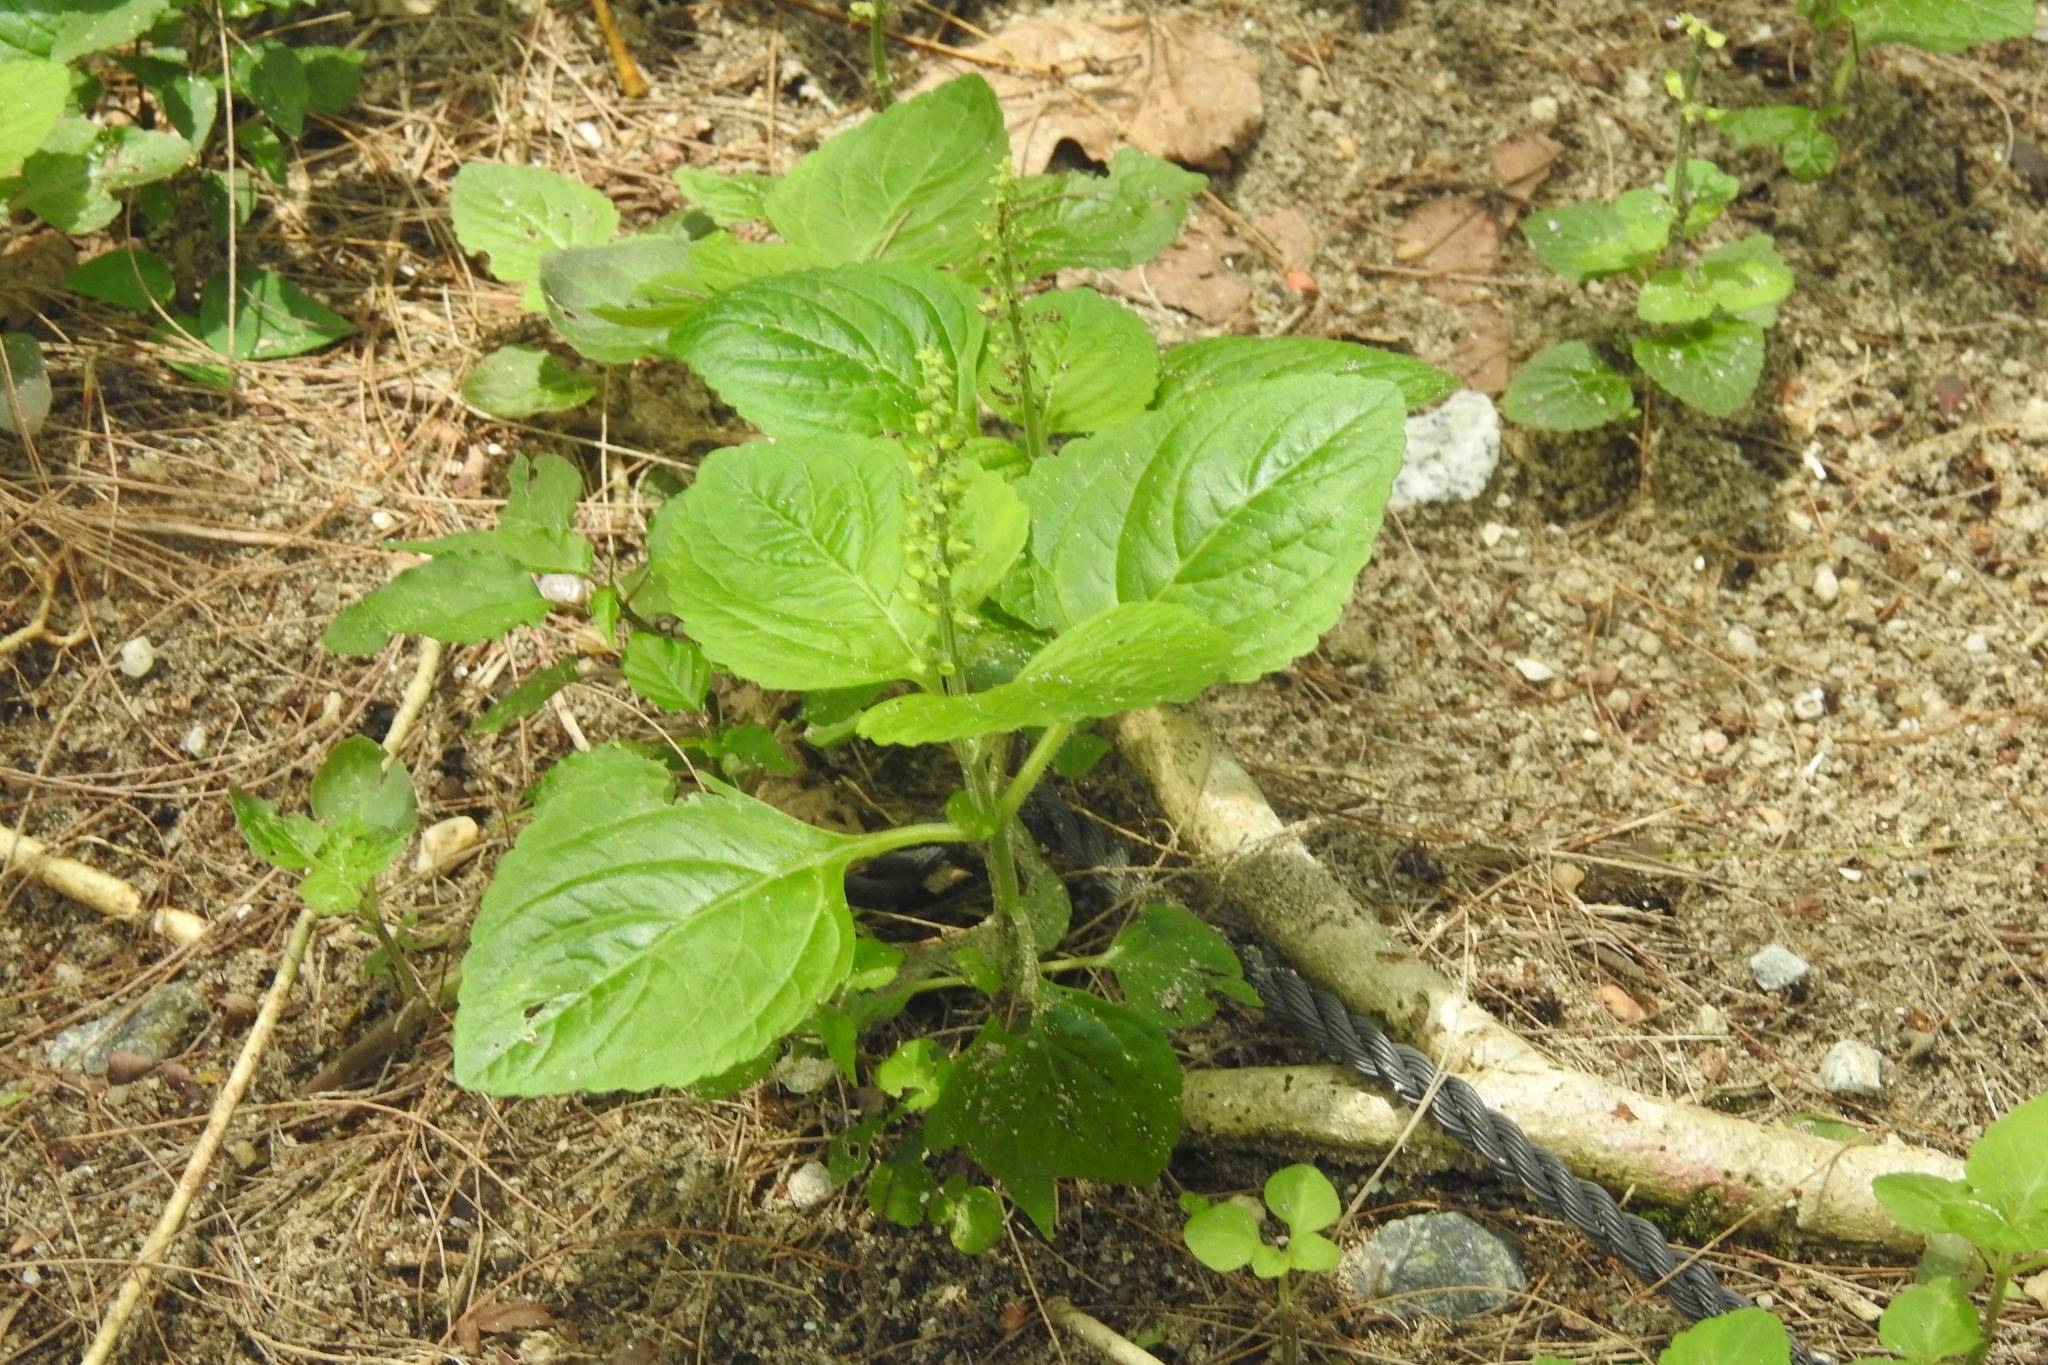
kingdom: Plantae
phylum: Tracheophyta
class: Magnoliopsida
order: Lamiales
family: Lamiaceae
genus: Coleus
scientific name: Coleus monostachyus
